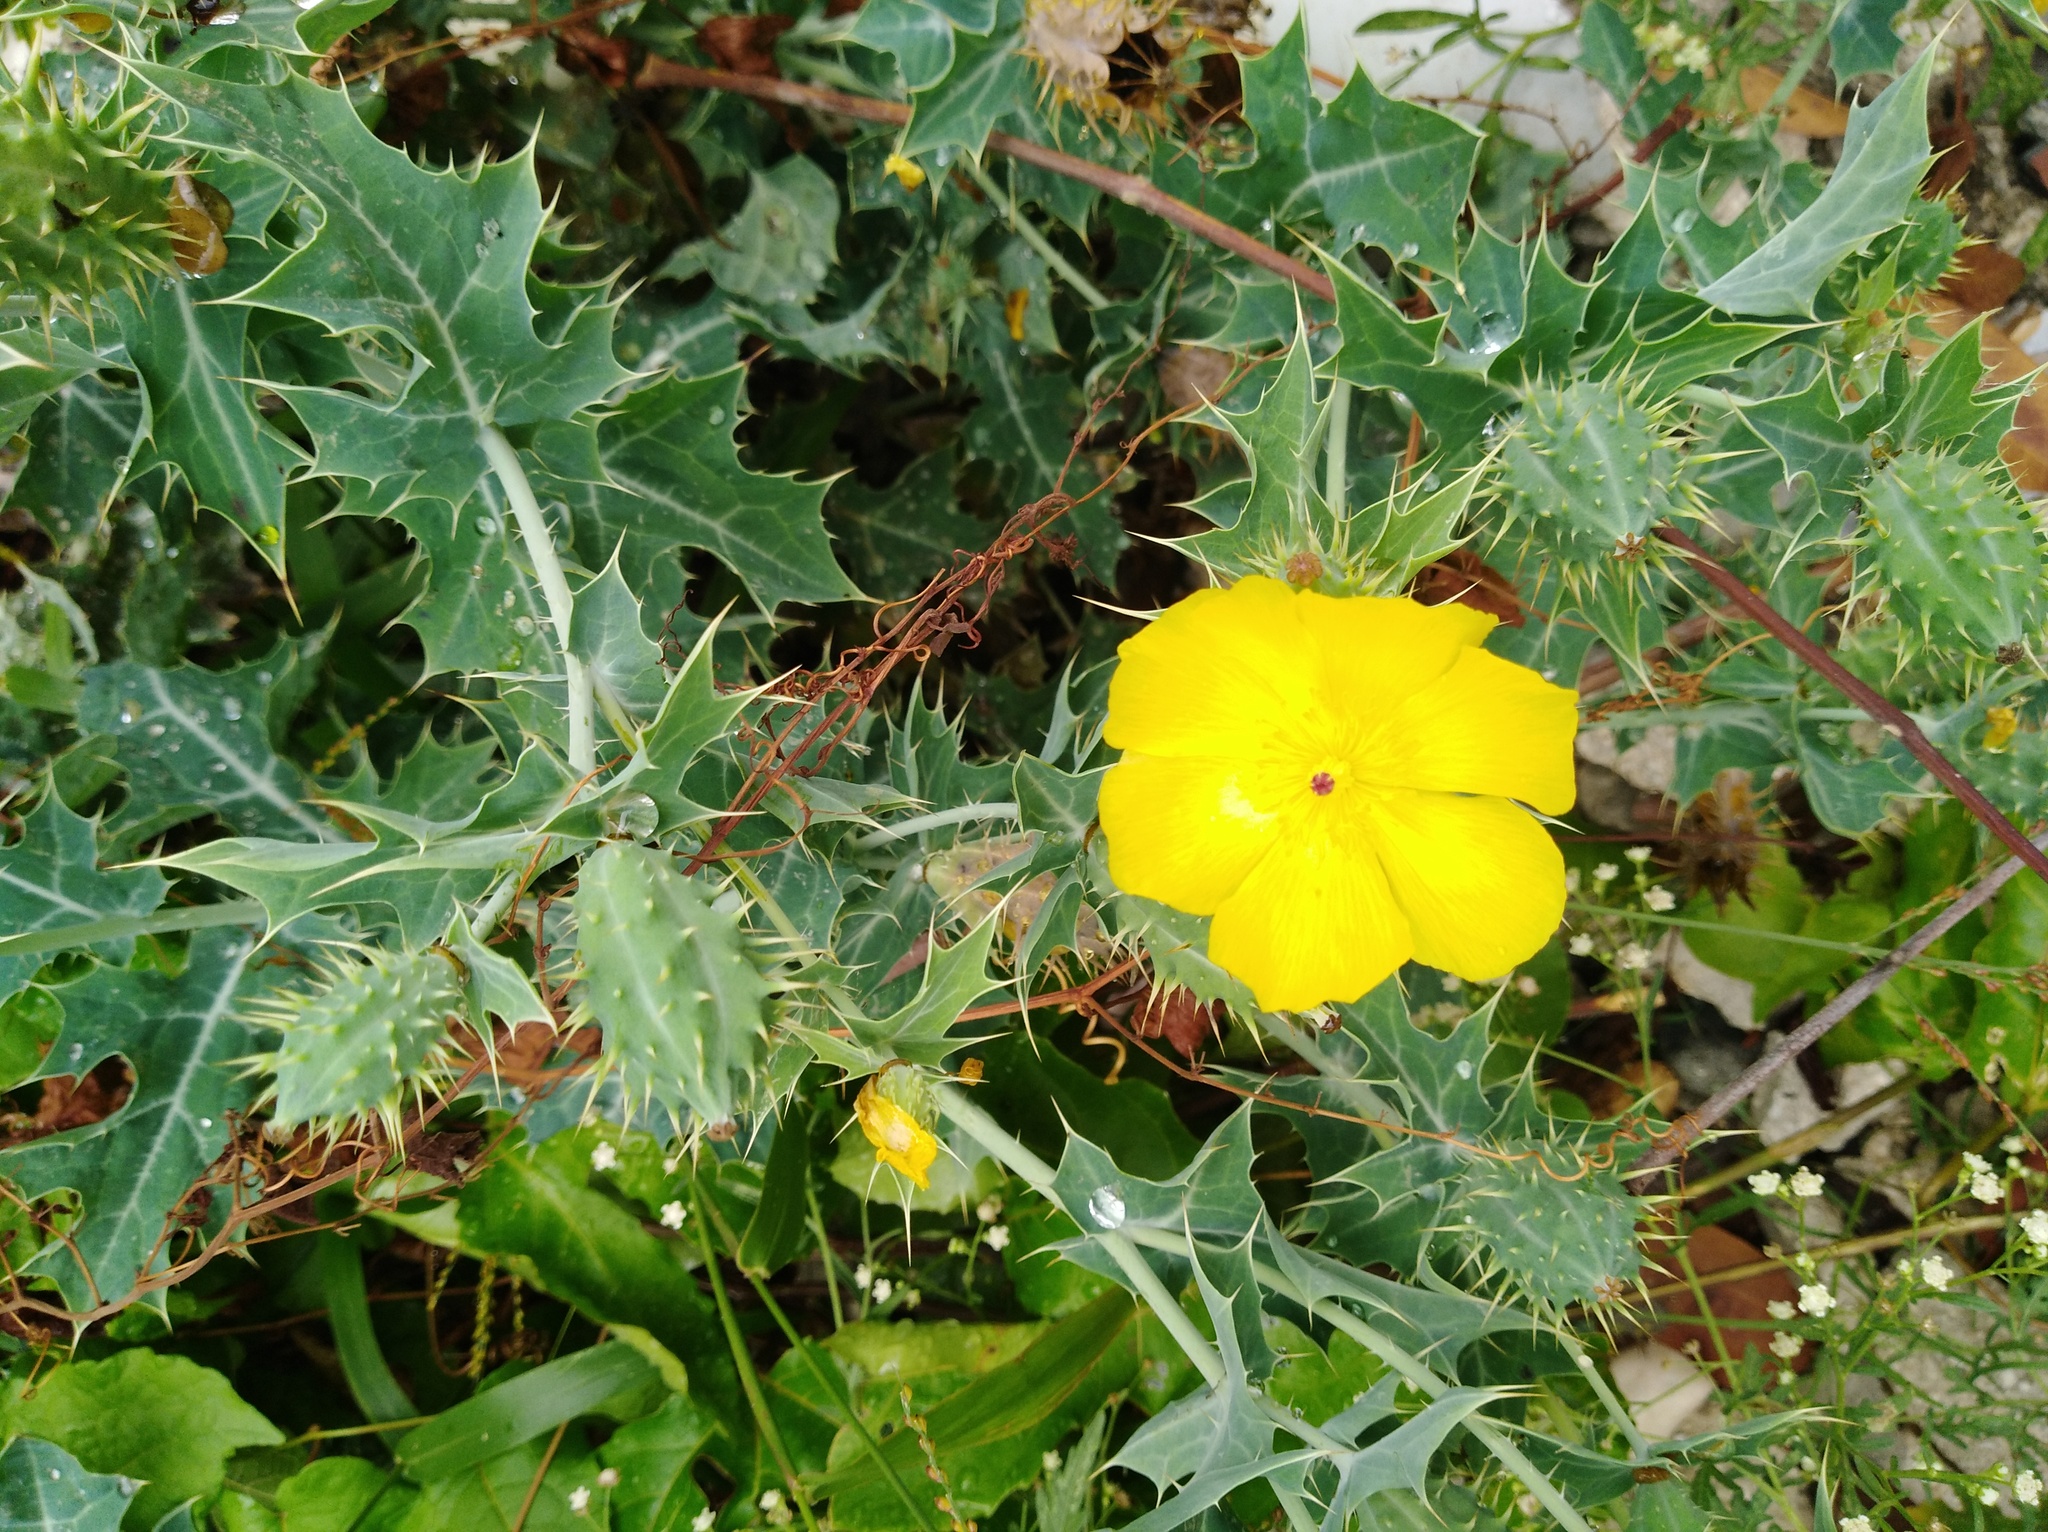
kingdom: Plantae
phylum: Tracheophyta
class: Magnoliopsida
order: Ranunculales
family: Papaveraceae
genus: Argemone
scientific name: Argemone mexicana
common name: Mexican poppy
